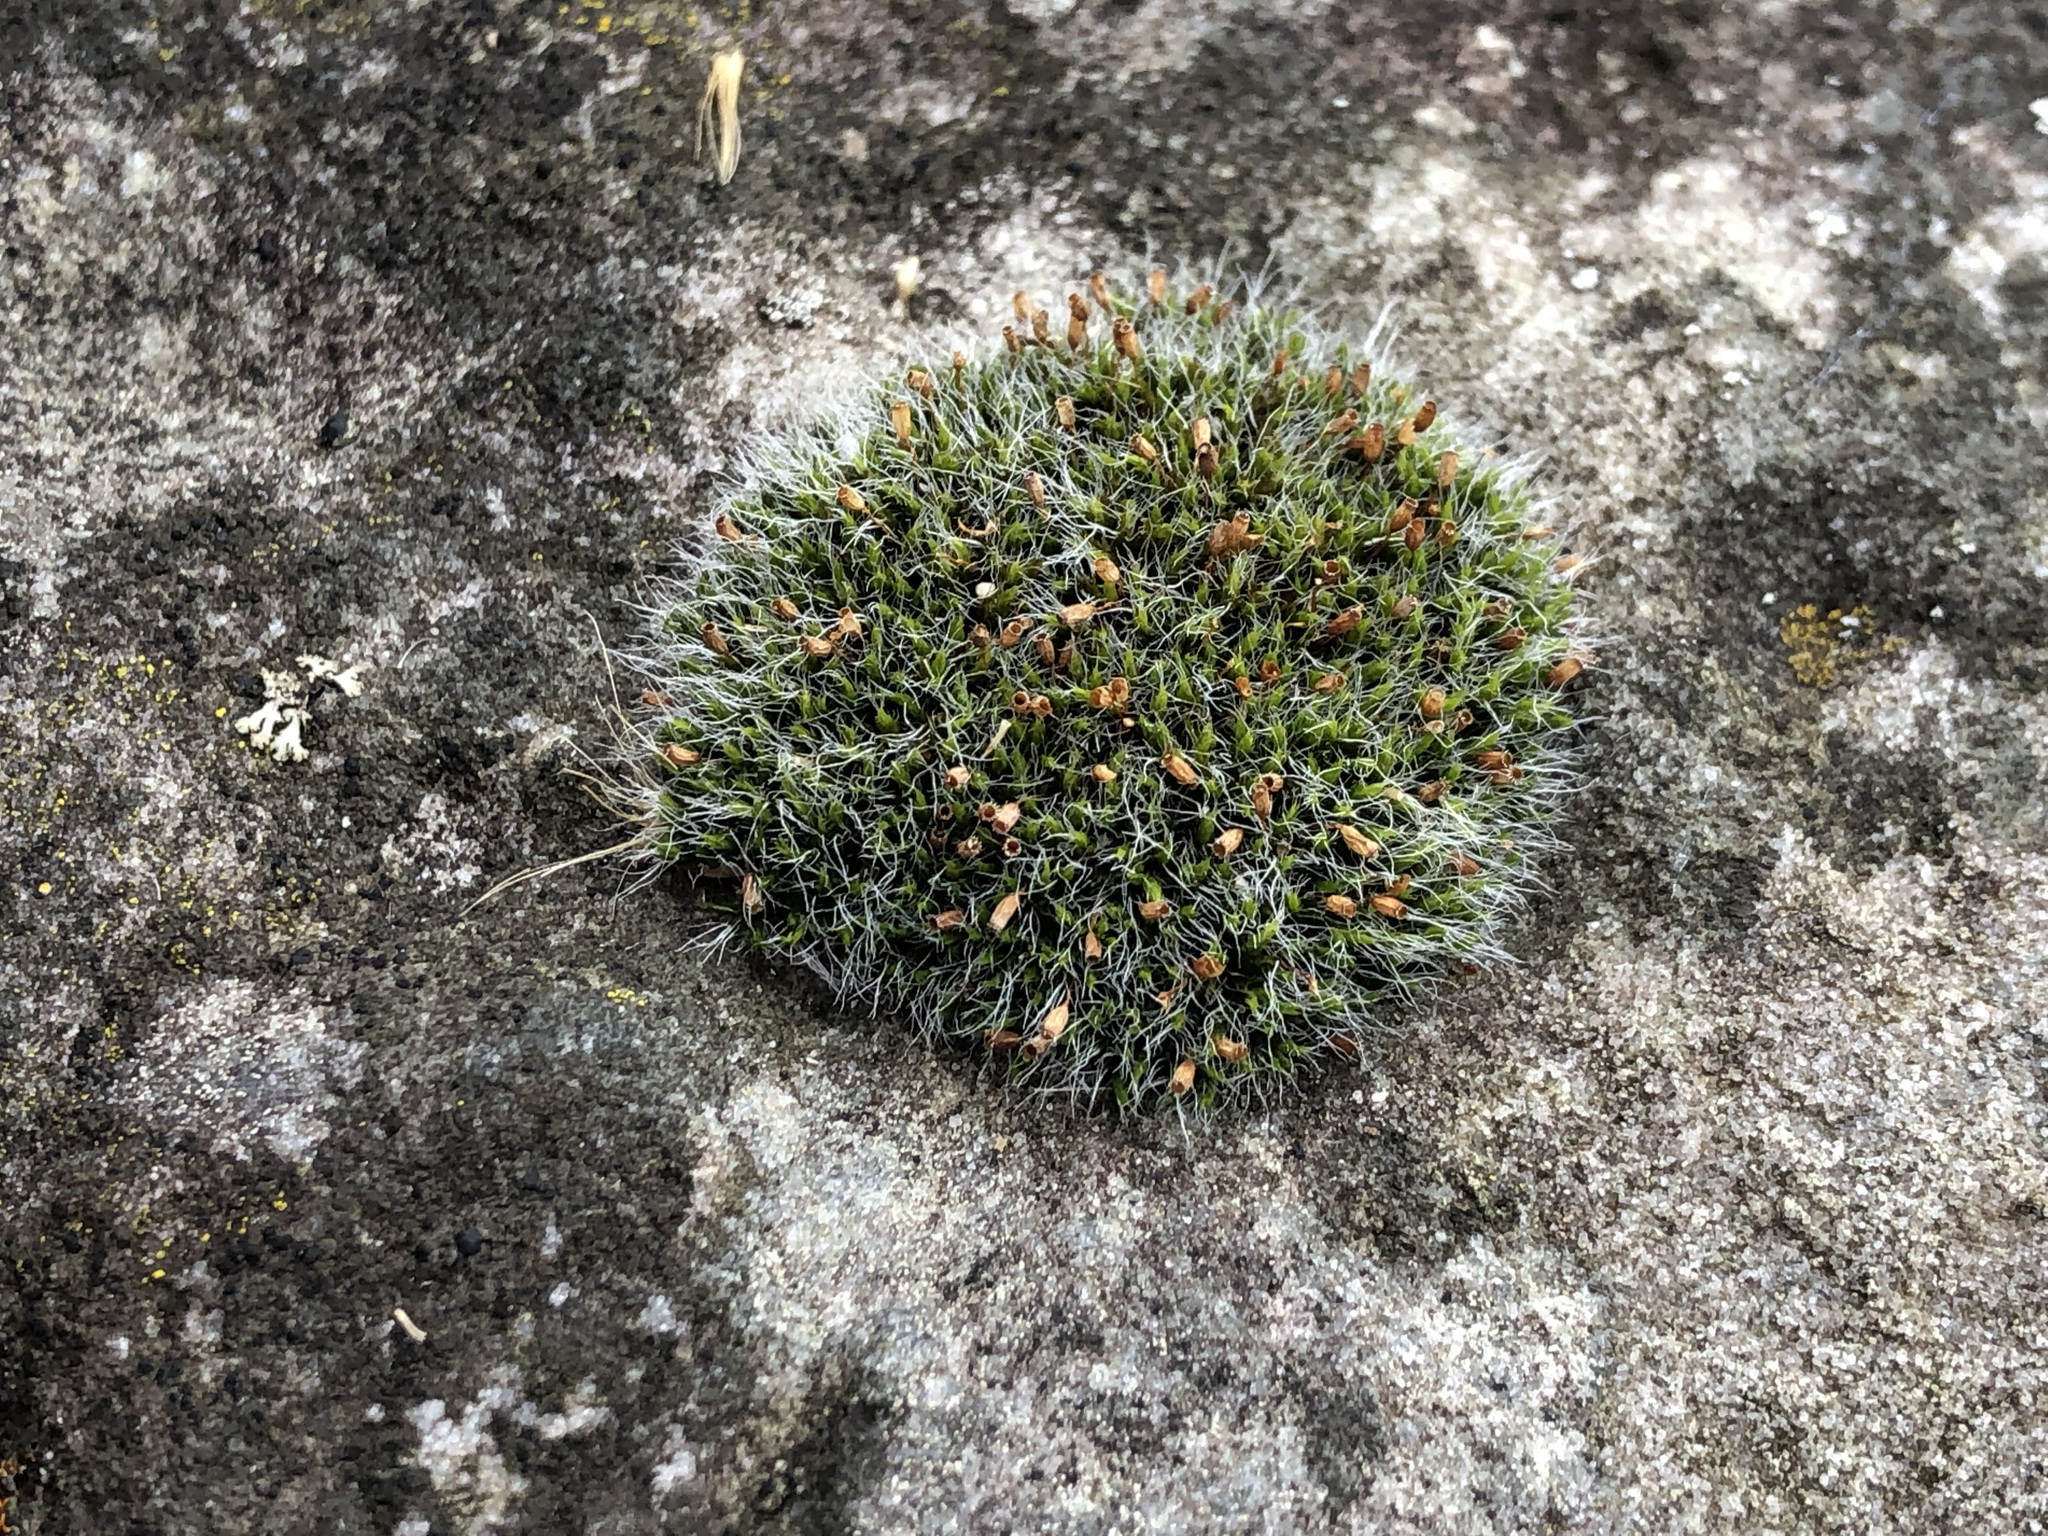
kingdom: Plantae
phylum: Bryophyta
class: Bryopsida
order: Grimmiales
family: Grimmiaceae
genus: Grimmia
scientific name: Grimmia pulvinata
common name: Grey-cushioned grimmia
